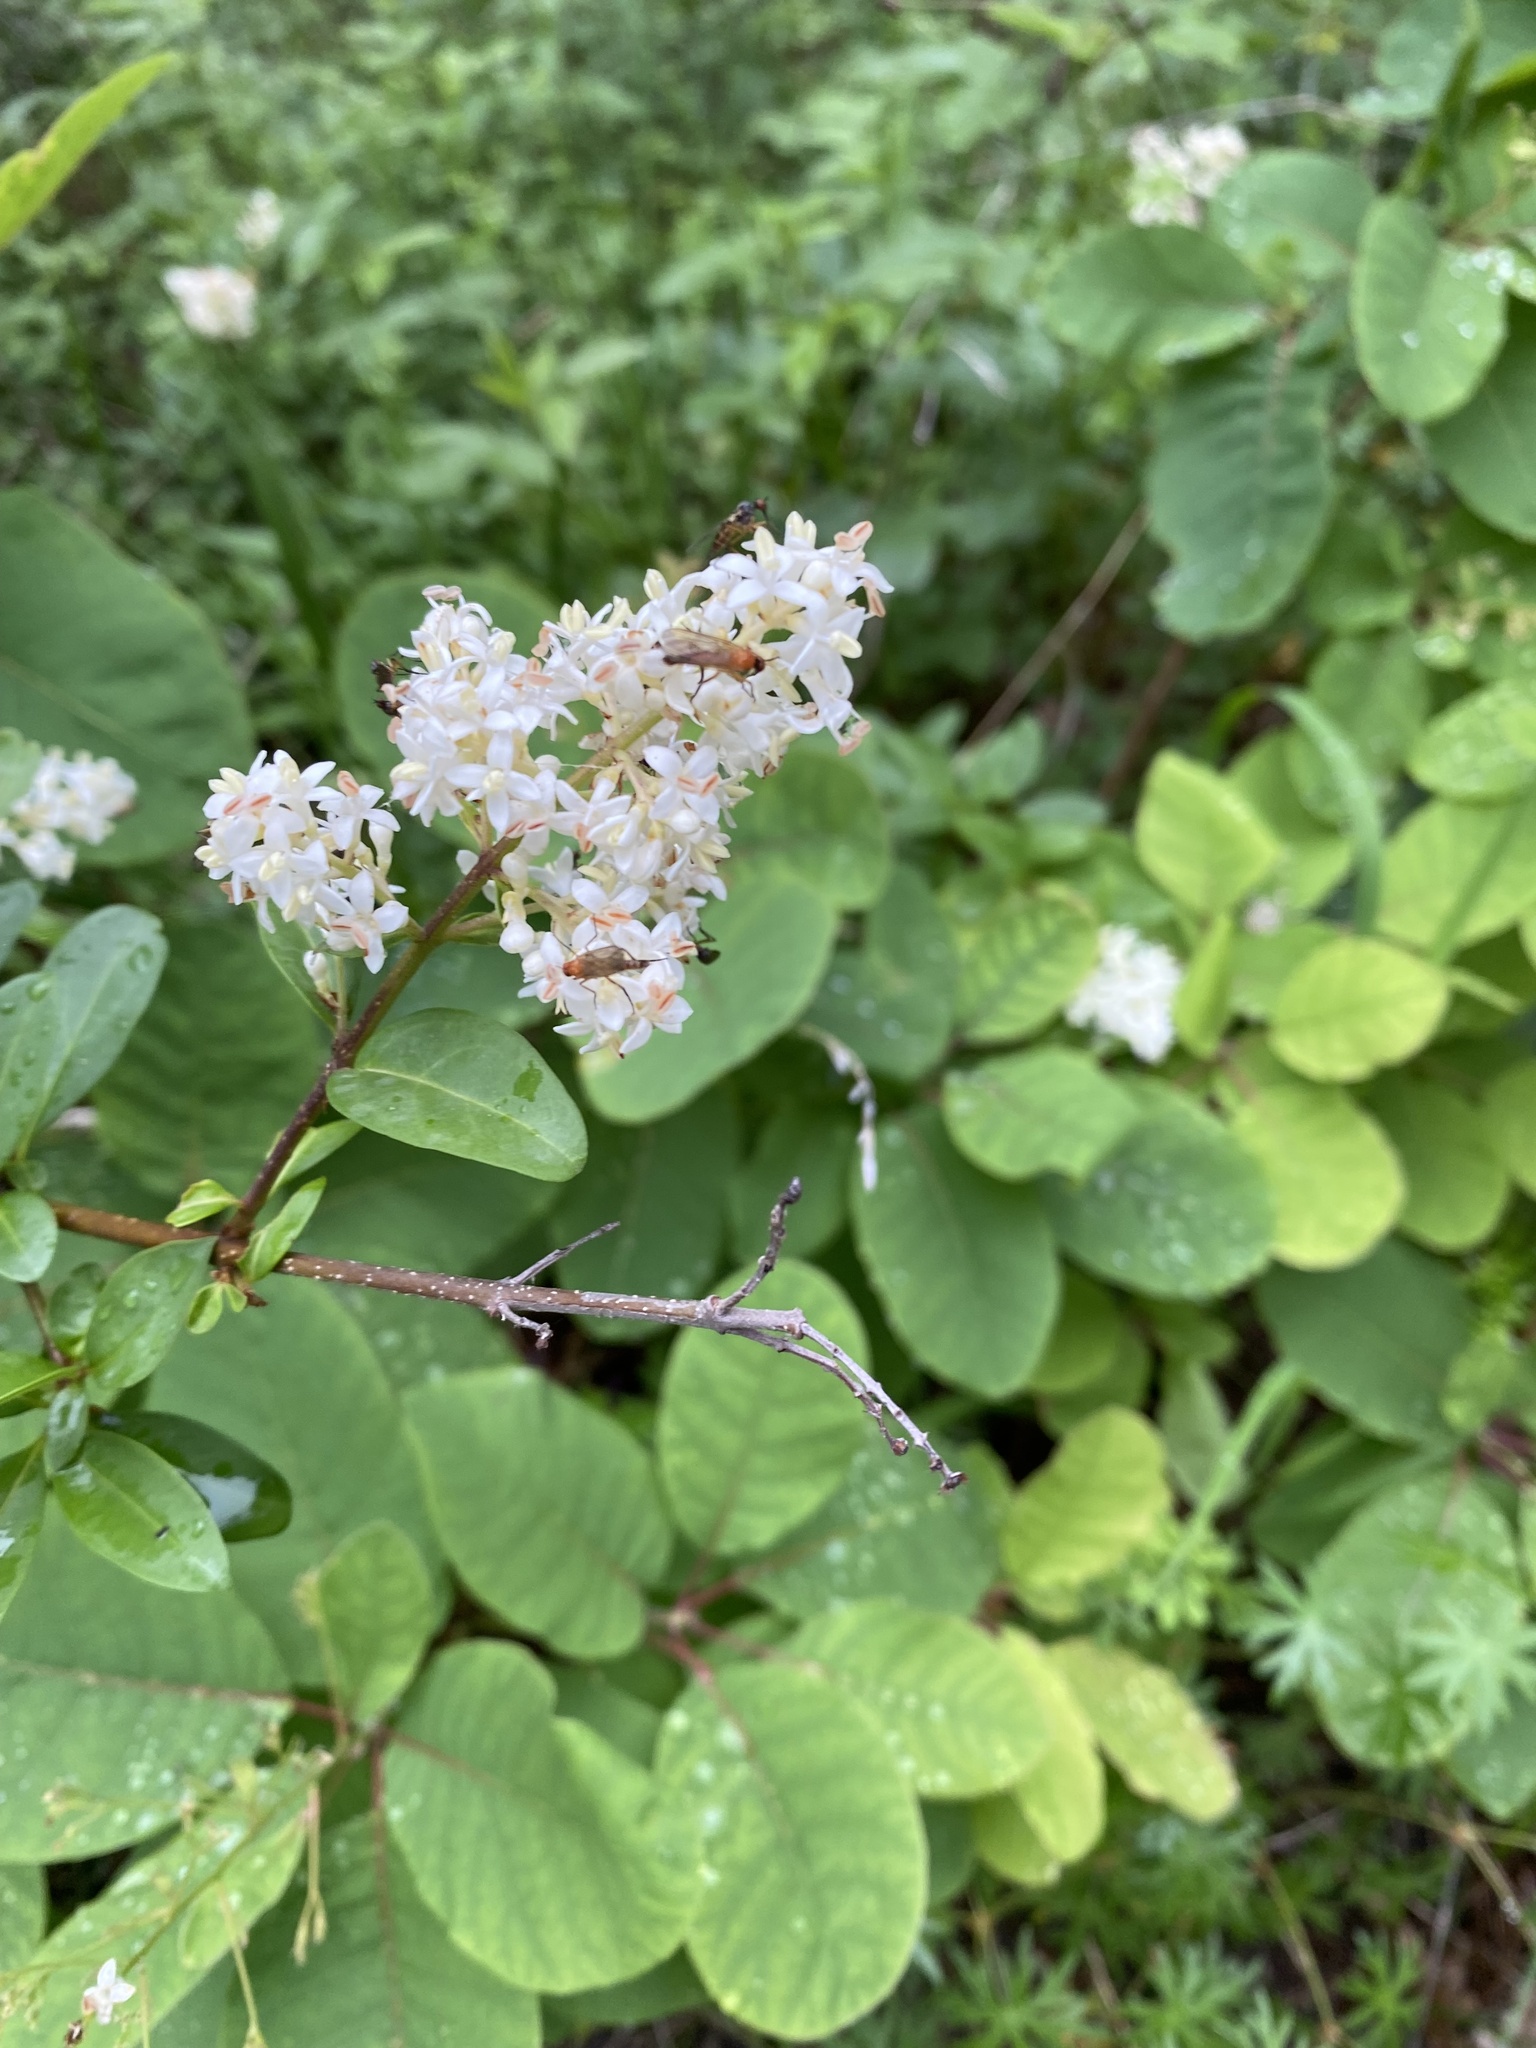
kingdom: Plantae
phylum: Tracheophyta
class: Magnoliopsida
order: Lamiales
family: Oleaceae
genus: Ligustrum
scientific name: Ligustrum vulgare
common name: Wild privet
